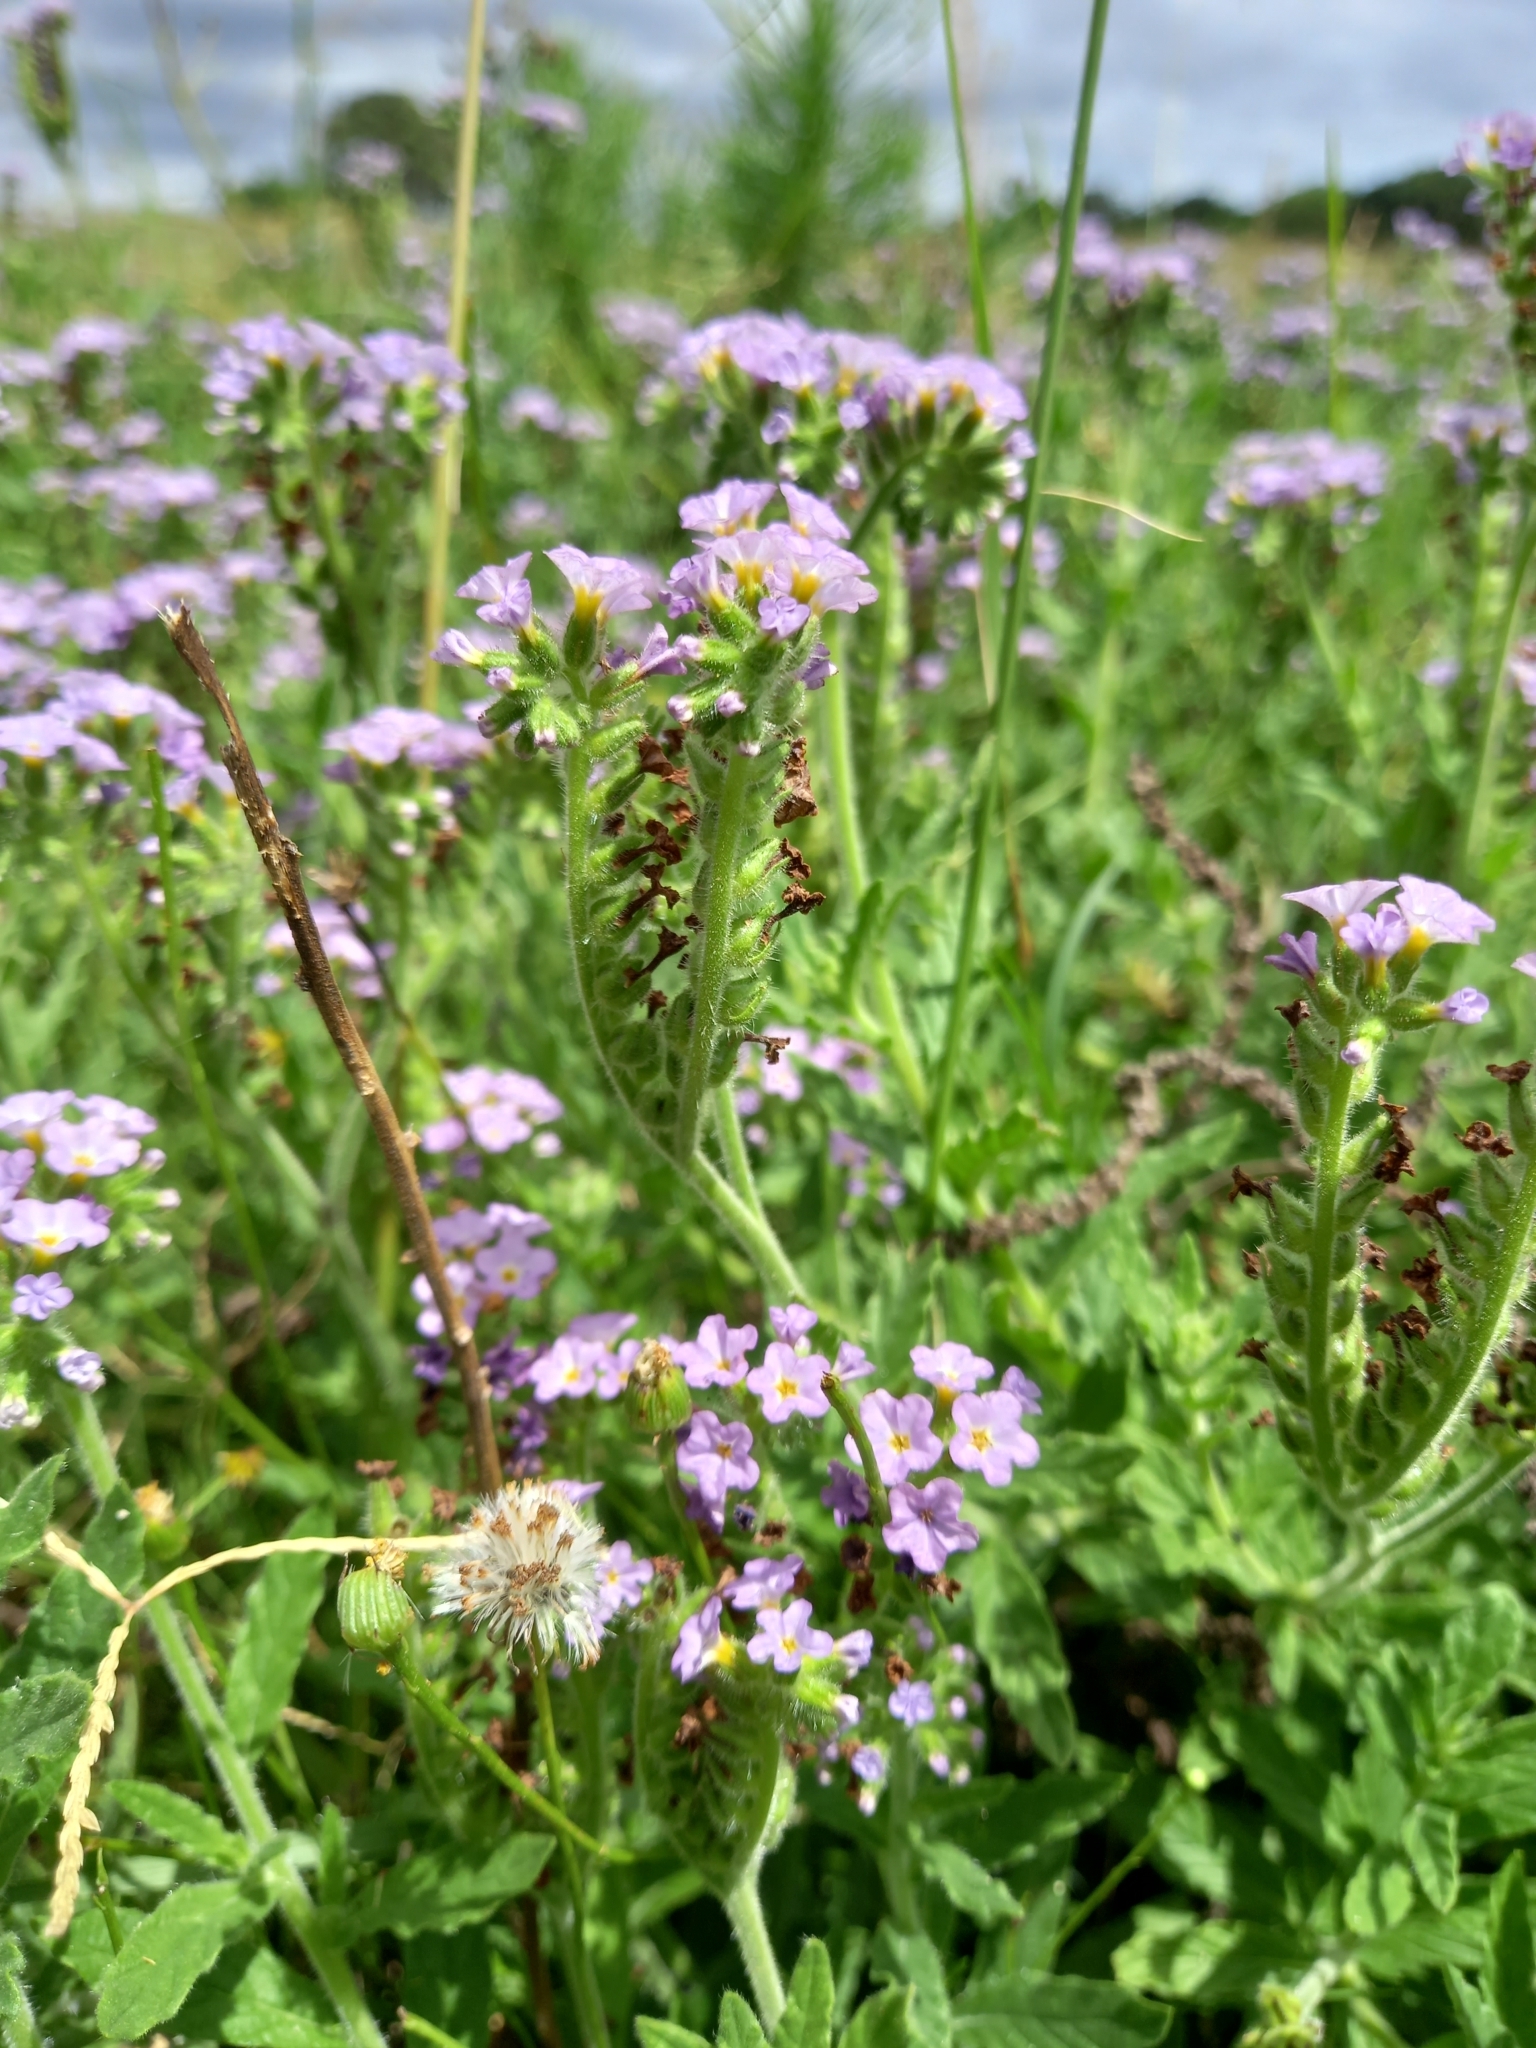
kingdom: Plantae
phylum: Tracheophyta
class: Magnoliopsida
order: Boraginales
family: Heliotropiaceae
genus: Heliotropium
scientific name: Heliotropium amplexicaule
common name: Clasping heliotrope
